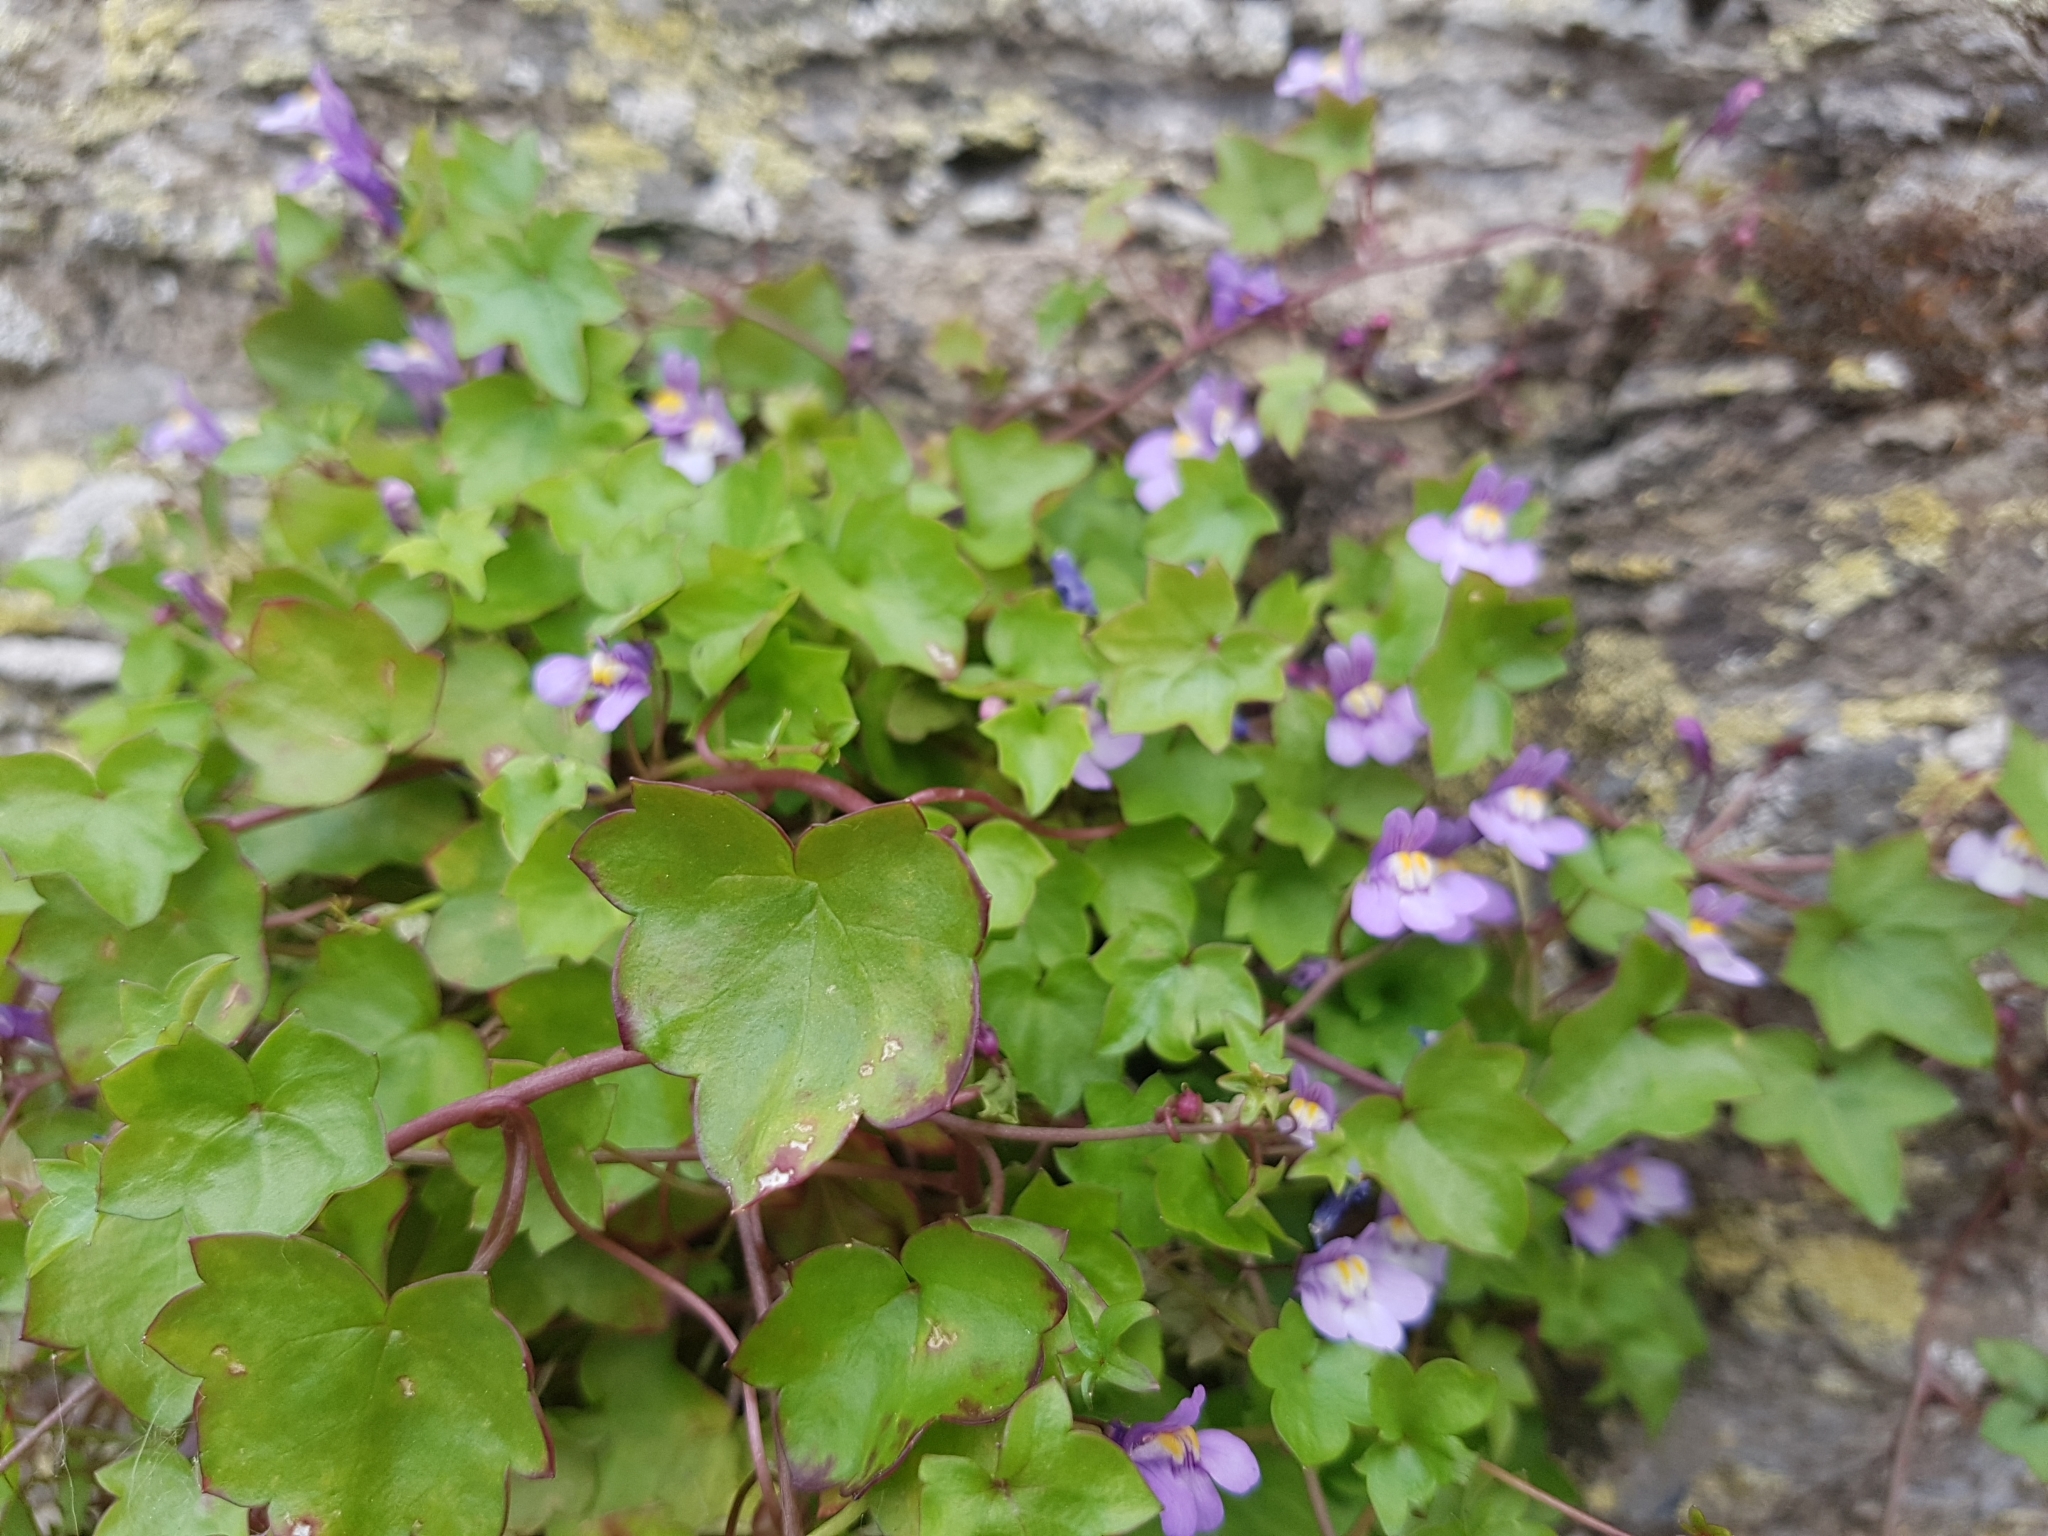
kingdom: Plantae
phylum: Tracheophyta
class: Magnoliopsida
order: Lamiales
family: Plantaginaceae
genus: Cymbalaria
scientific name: Cymbalaria muralis
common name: Ivy-leaved toadflax
